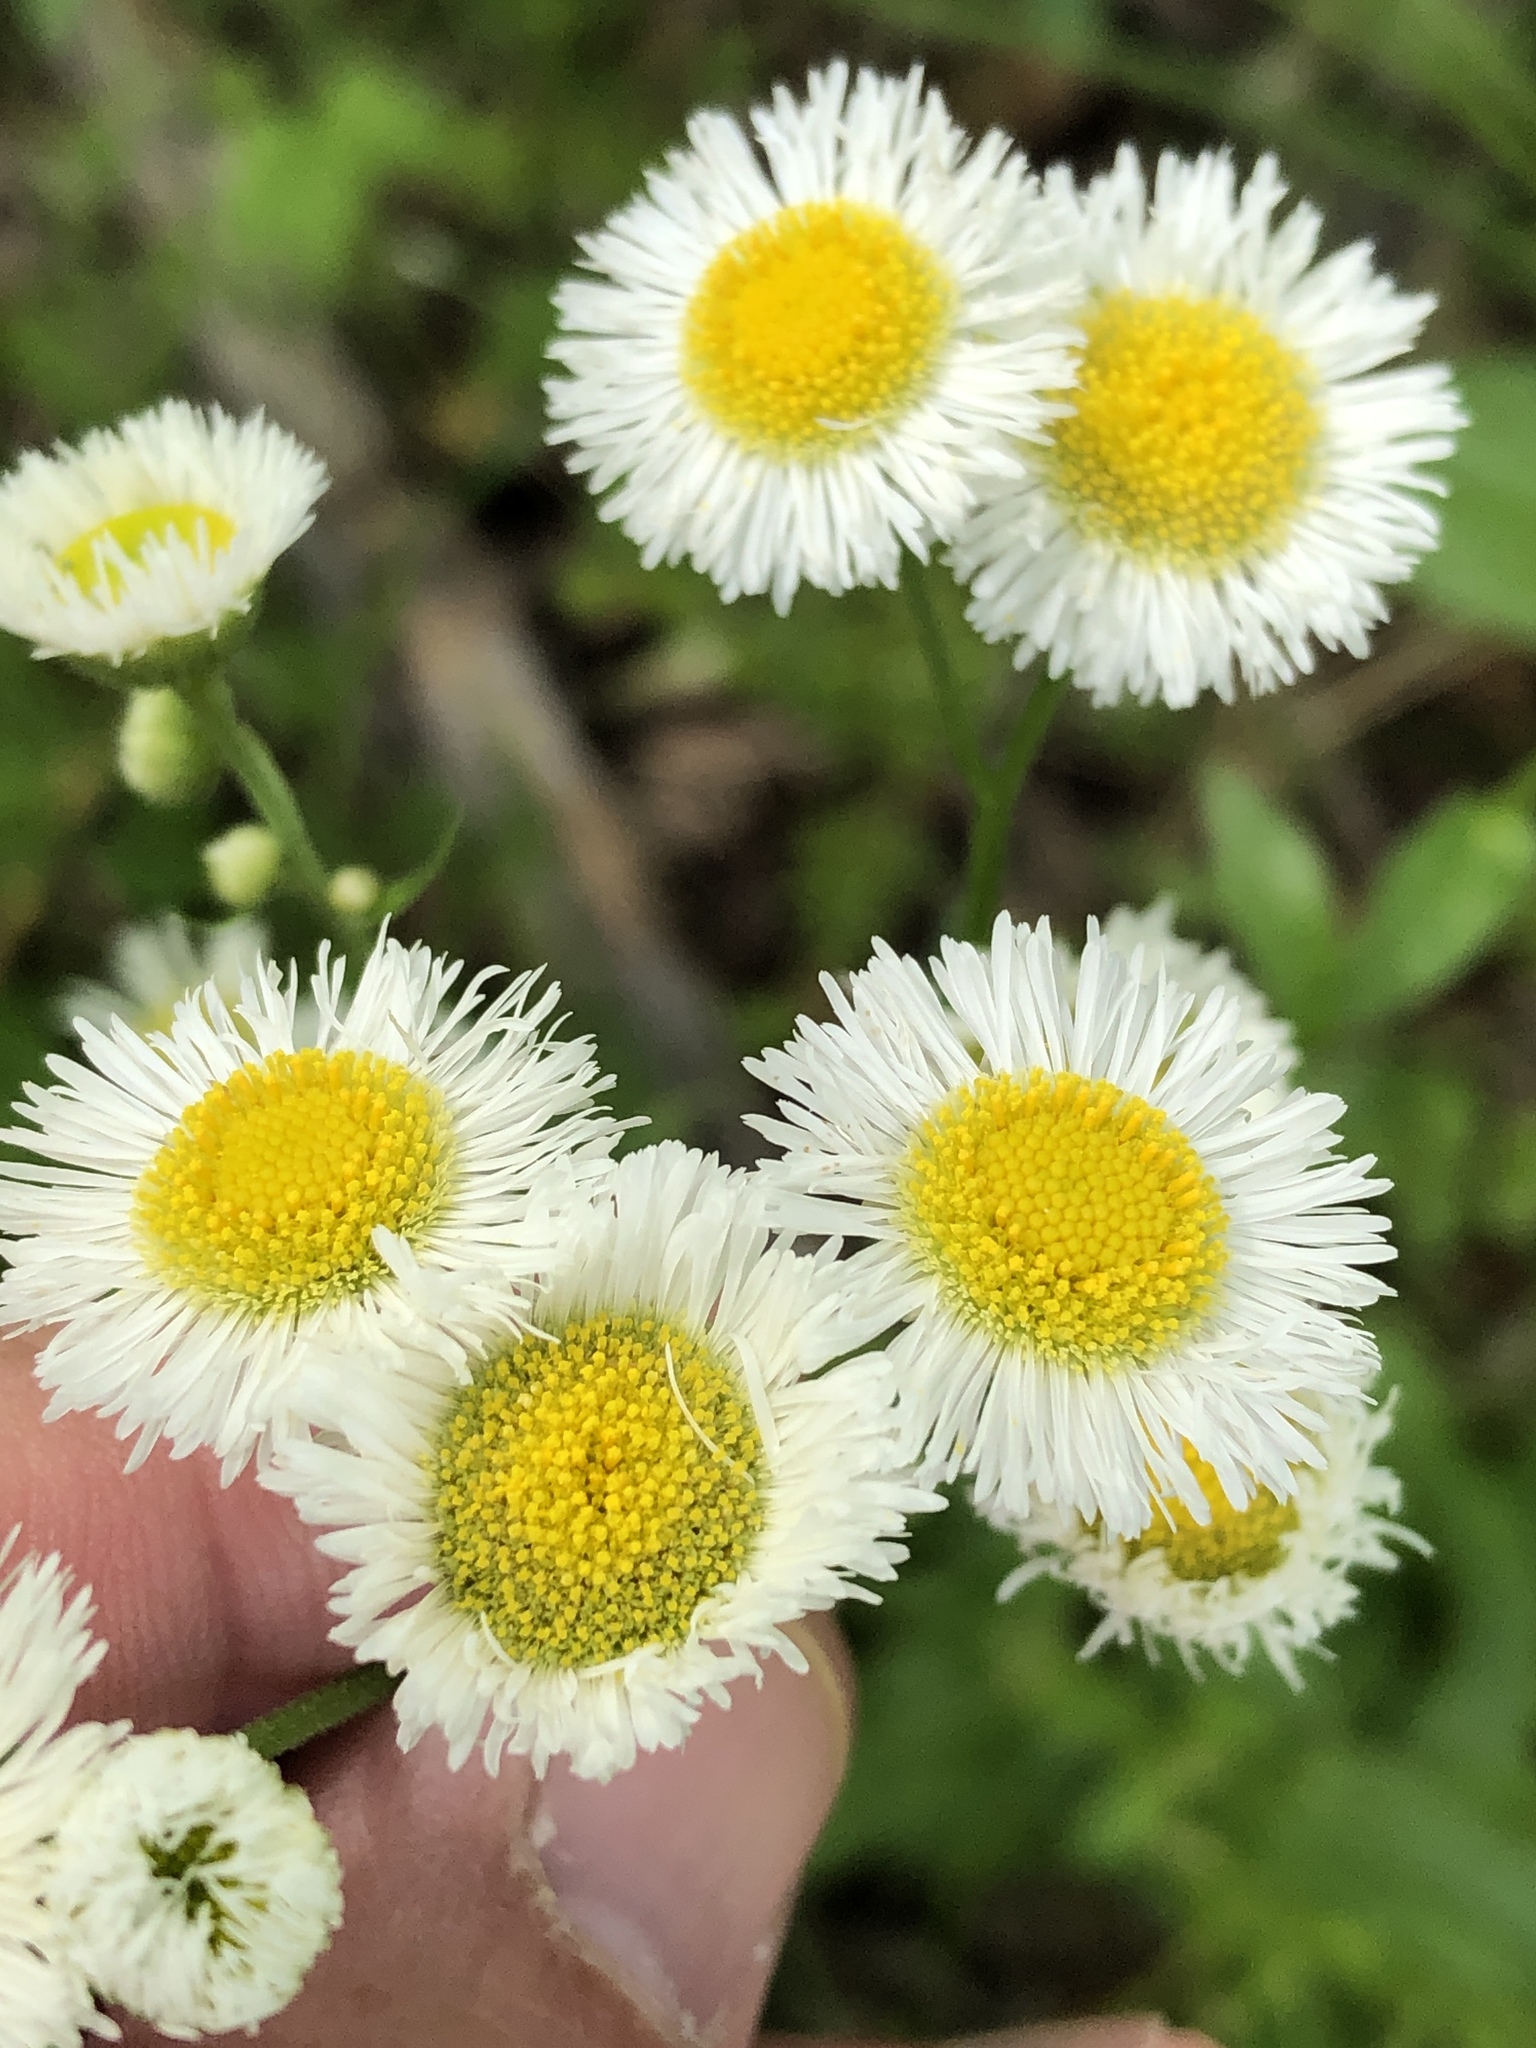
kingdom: Plantae
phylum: Tracheophyta
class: Magnoliopsida
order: Asterales
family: Asteraceae
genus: Erigeron
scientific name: Erigeron philadelphicus
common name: Robin's-plantain
